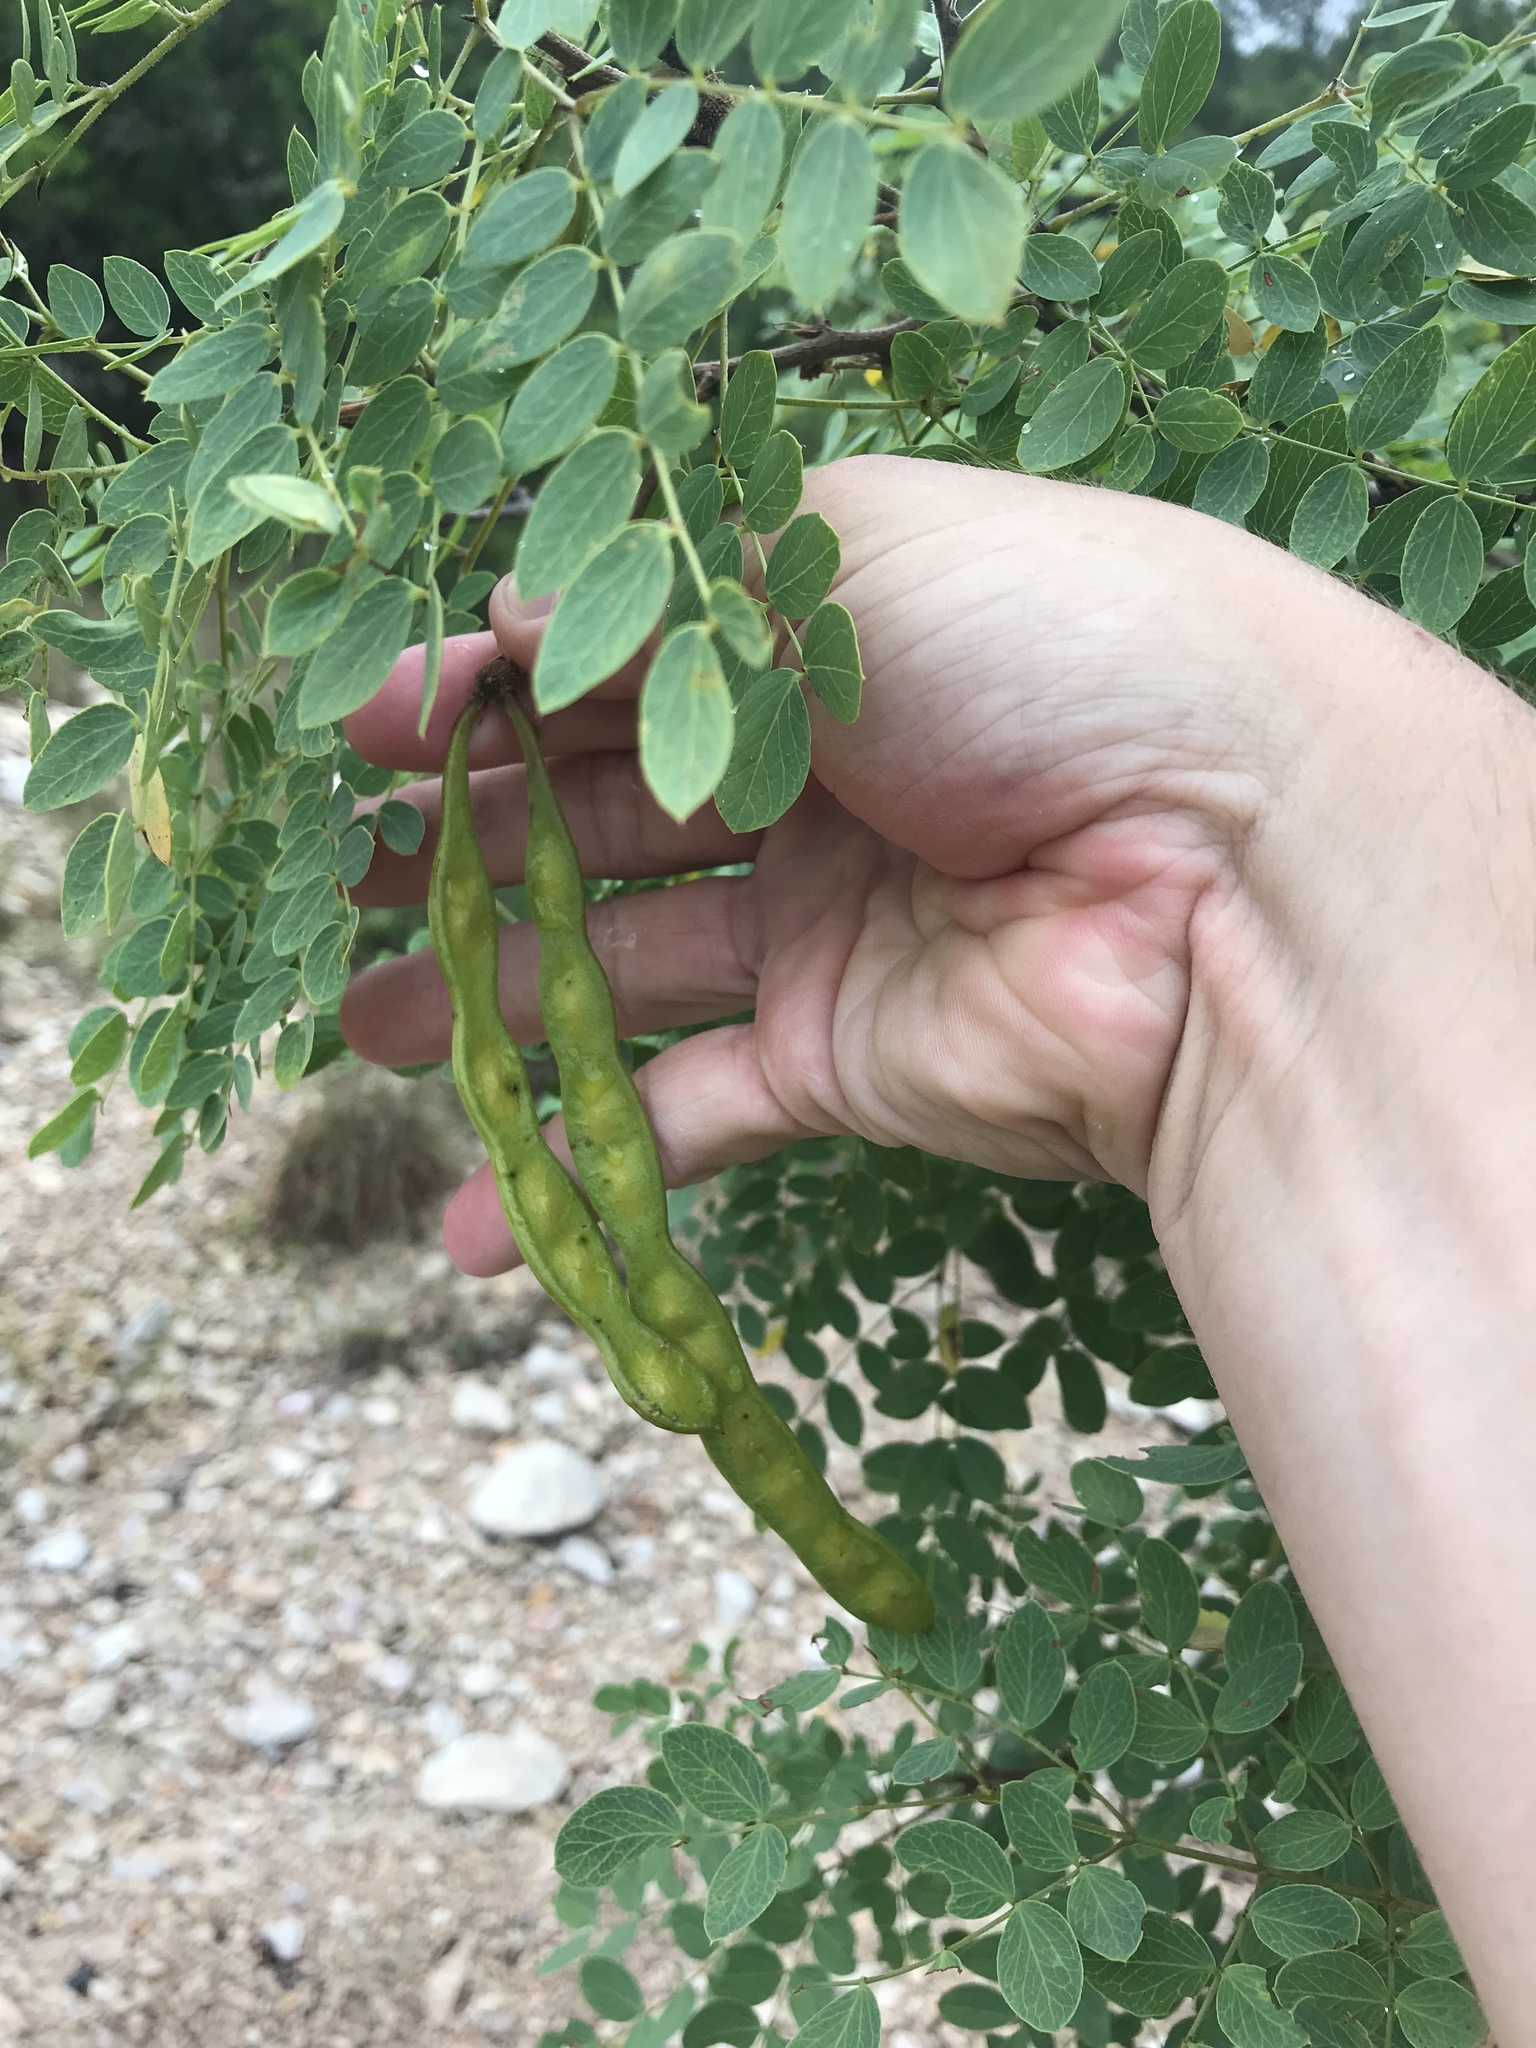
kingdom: Plantae
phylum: Tracheophyta
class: Magnoliopsida
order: Fabales
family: Fabaceae
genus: Leucaena
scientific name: Leucaena retusa
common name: Littleleaf leadtree
